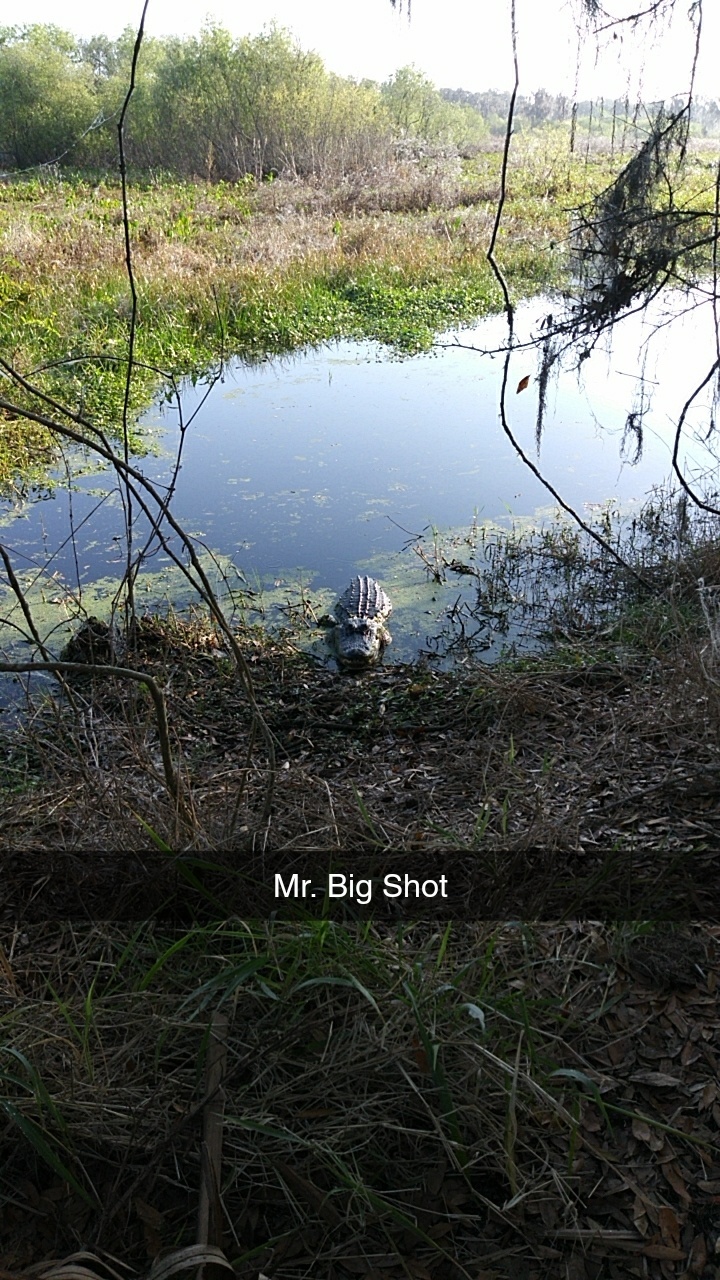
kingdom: Animalia
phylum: Chordata
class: Crocodylia
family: Alligatoridae
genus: Alligator
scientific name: Alligator mississippiensis
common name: American alligator
